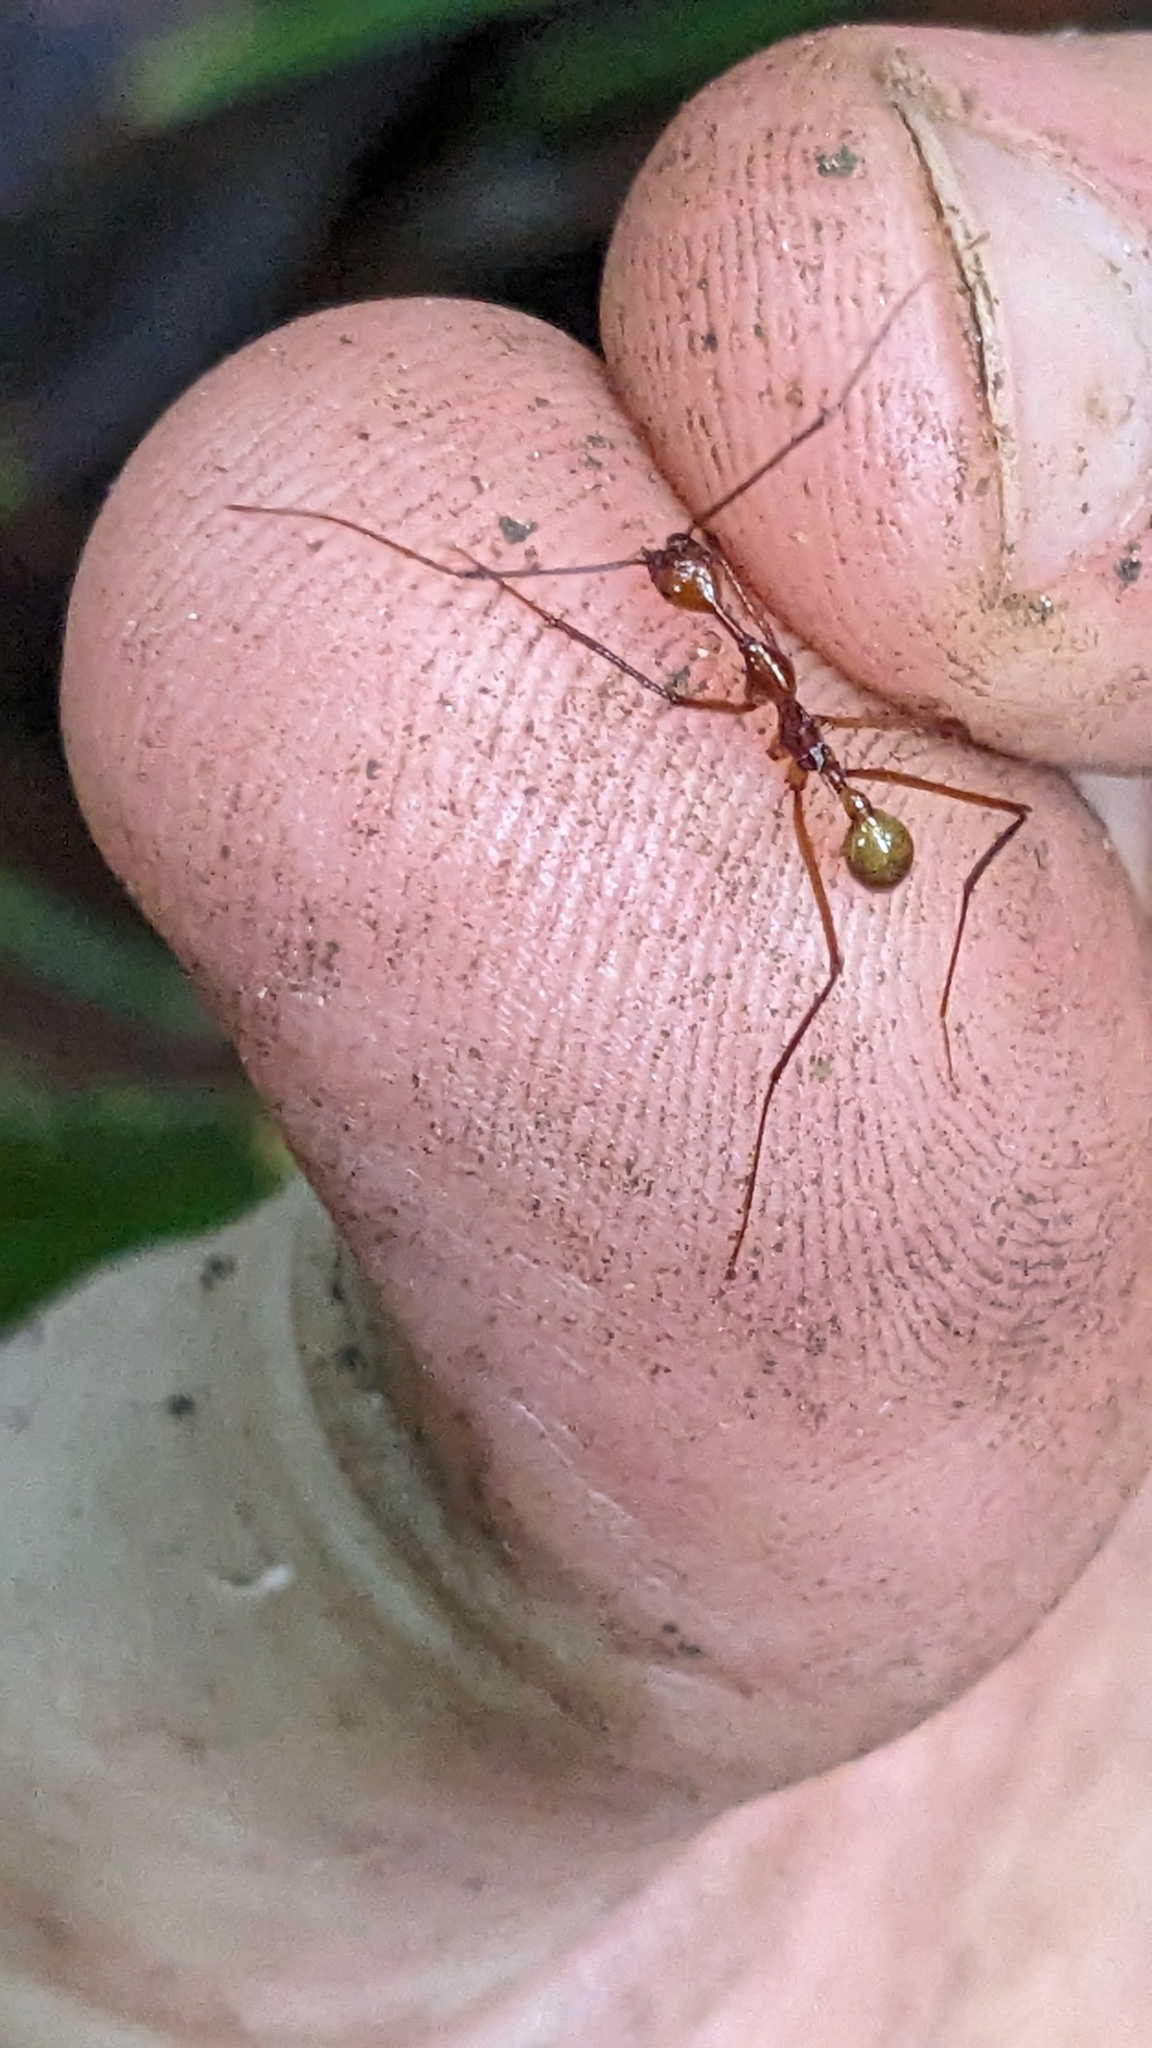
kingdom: Animalia
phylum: Arthropoda
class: Insecta
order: Hymenoptera
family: Formicidae
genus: Aphaenogaster
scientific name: Aphaenogaster dromedaria
